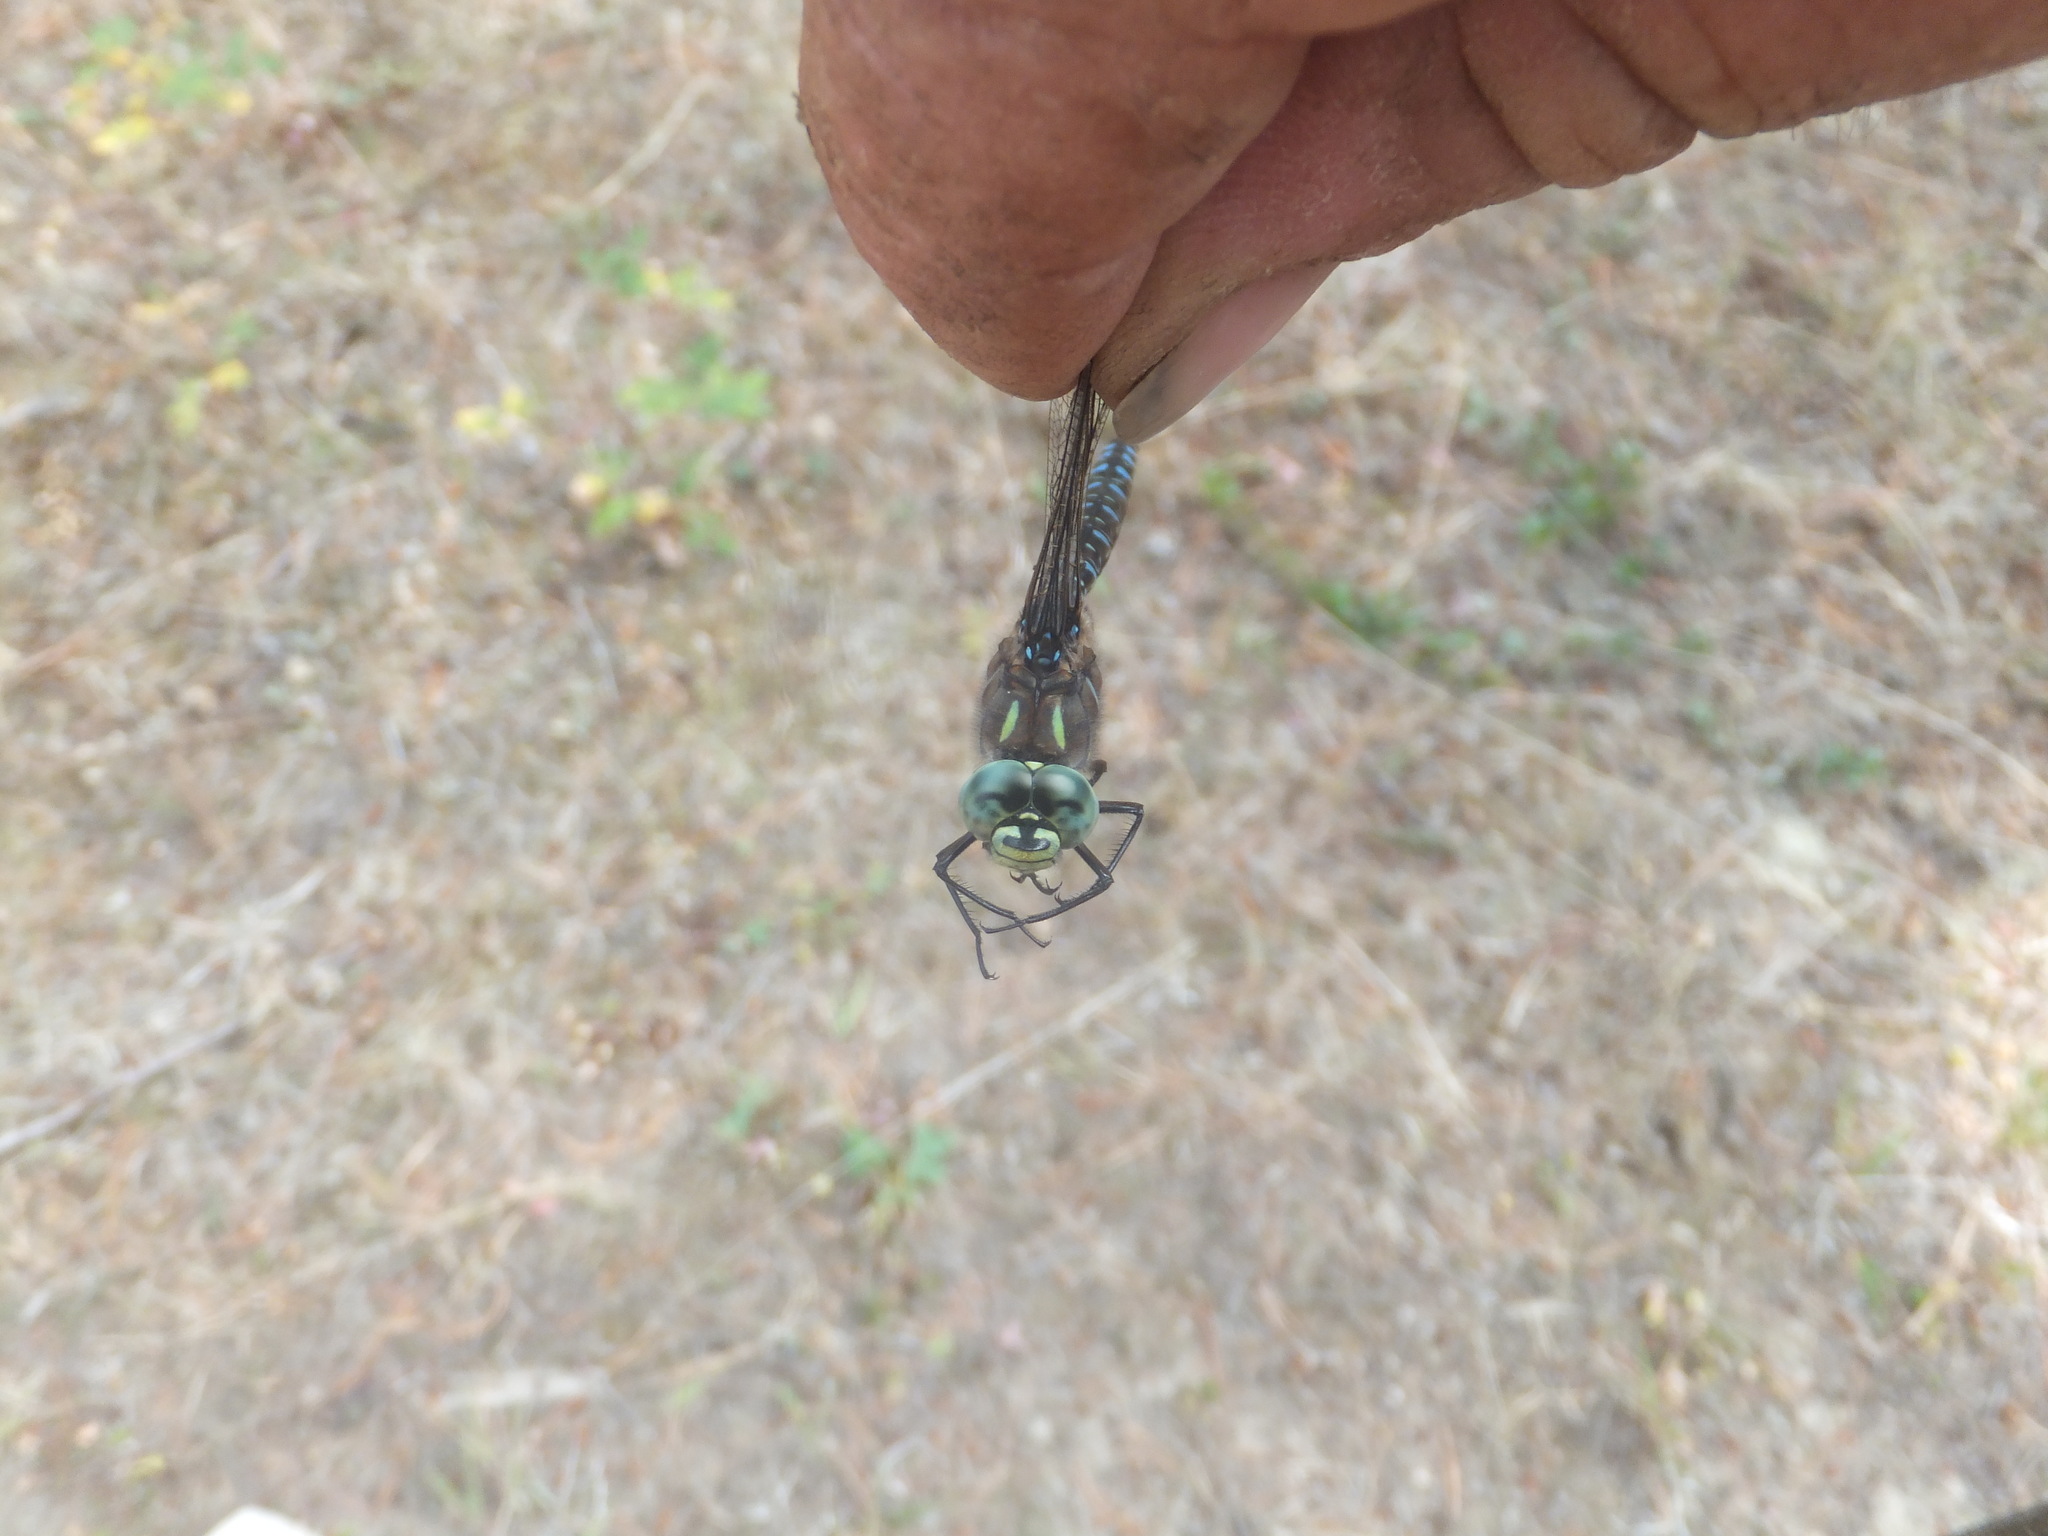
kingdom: Animalia
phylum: Arthropoda
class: Insecta
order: Odonata
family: Aeshnidae
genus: Aeshna
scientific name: Aeshna interrupta
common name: Variable darner
